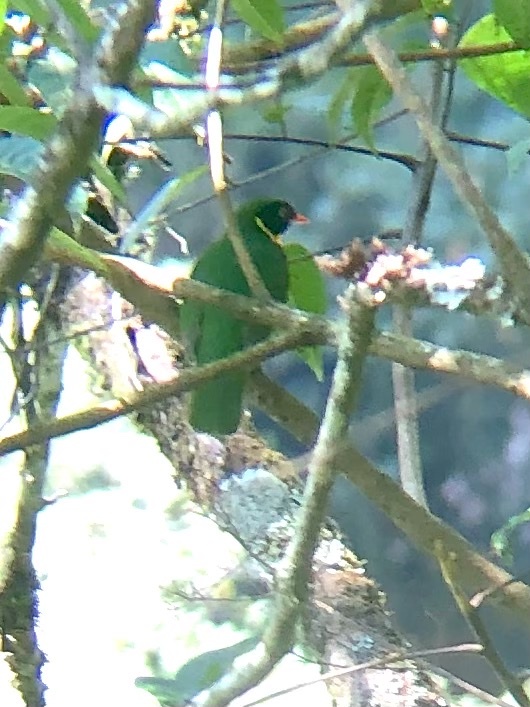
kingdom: Animalia
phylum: Chordata
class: Aves
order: Passeriformes
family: Cotingidae
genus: Pipreola
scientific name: Pipreola pulchra
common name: Masked fruiteater
